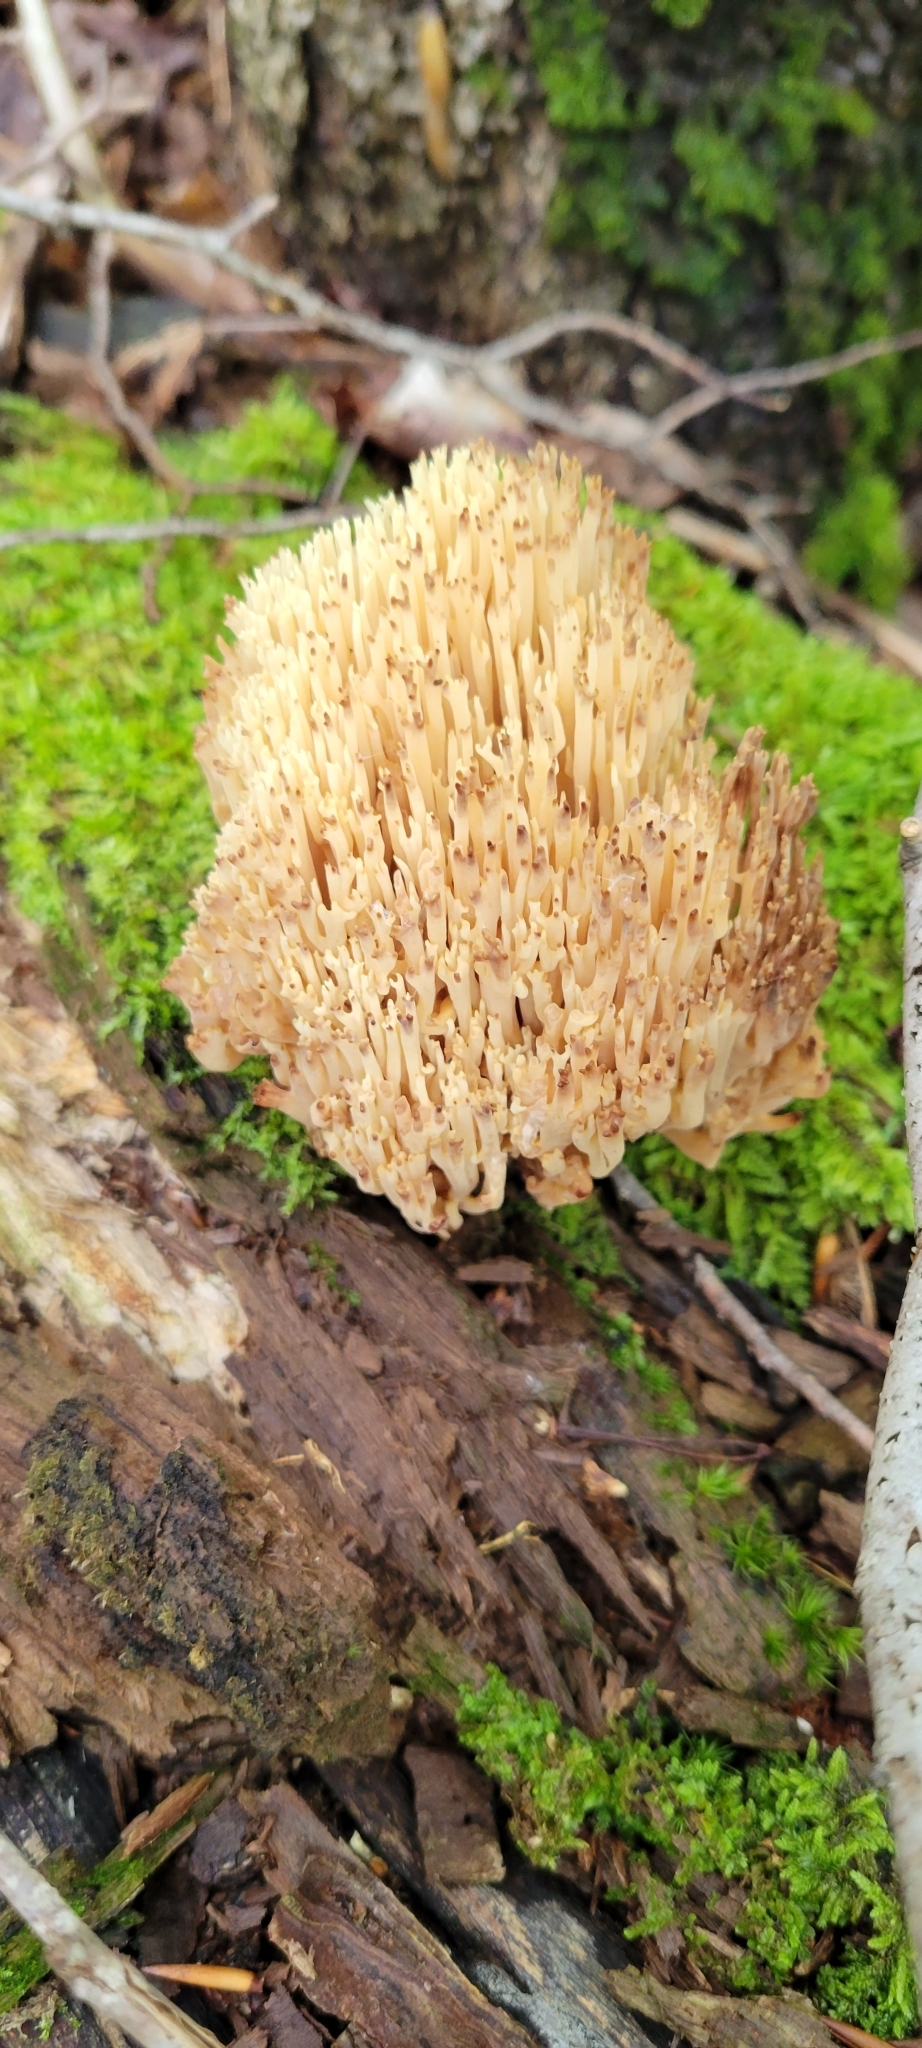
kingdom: Fungi
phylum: Basidiomycota
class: Agaricomycetes
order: Gomphales
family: Gomphaceae
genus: Ramaria
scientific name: Ramaria stricta
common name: Upright coral
